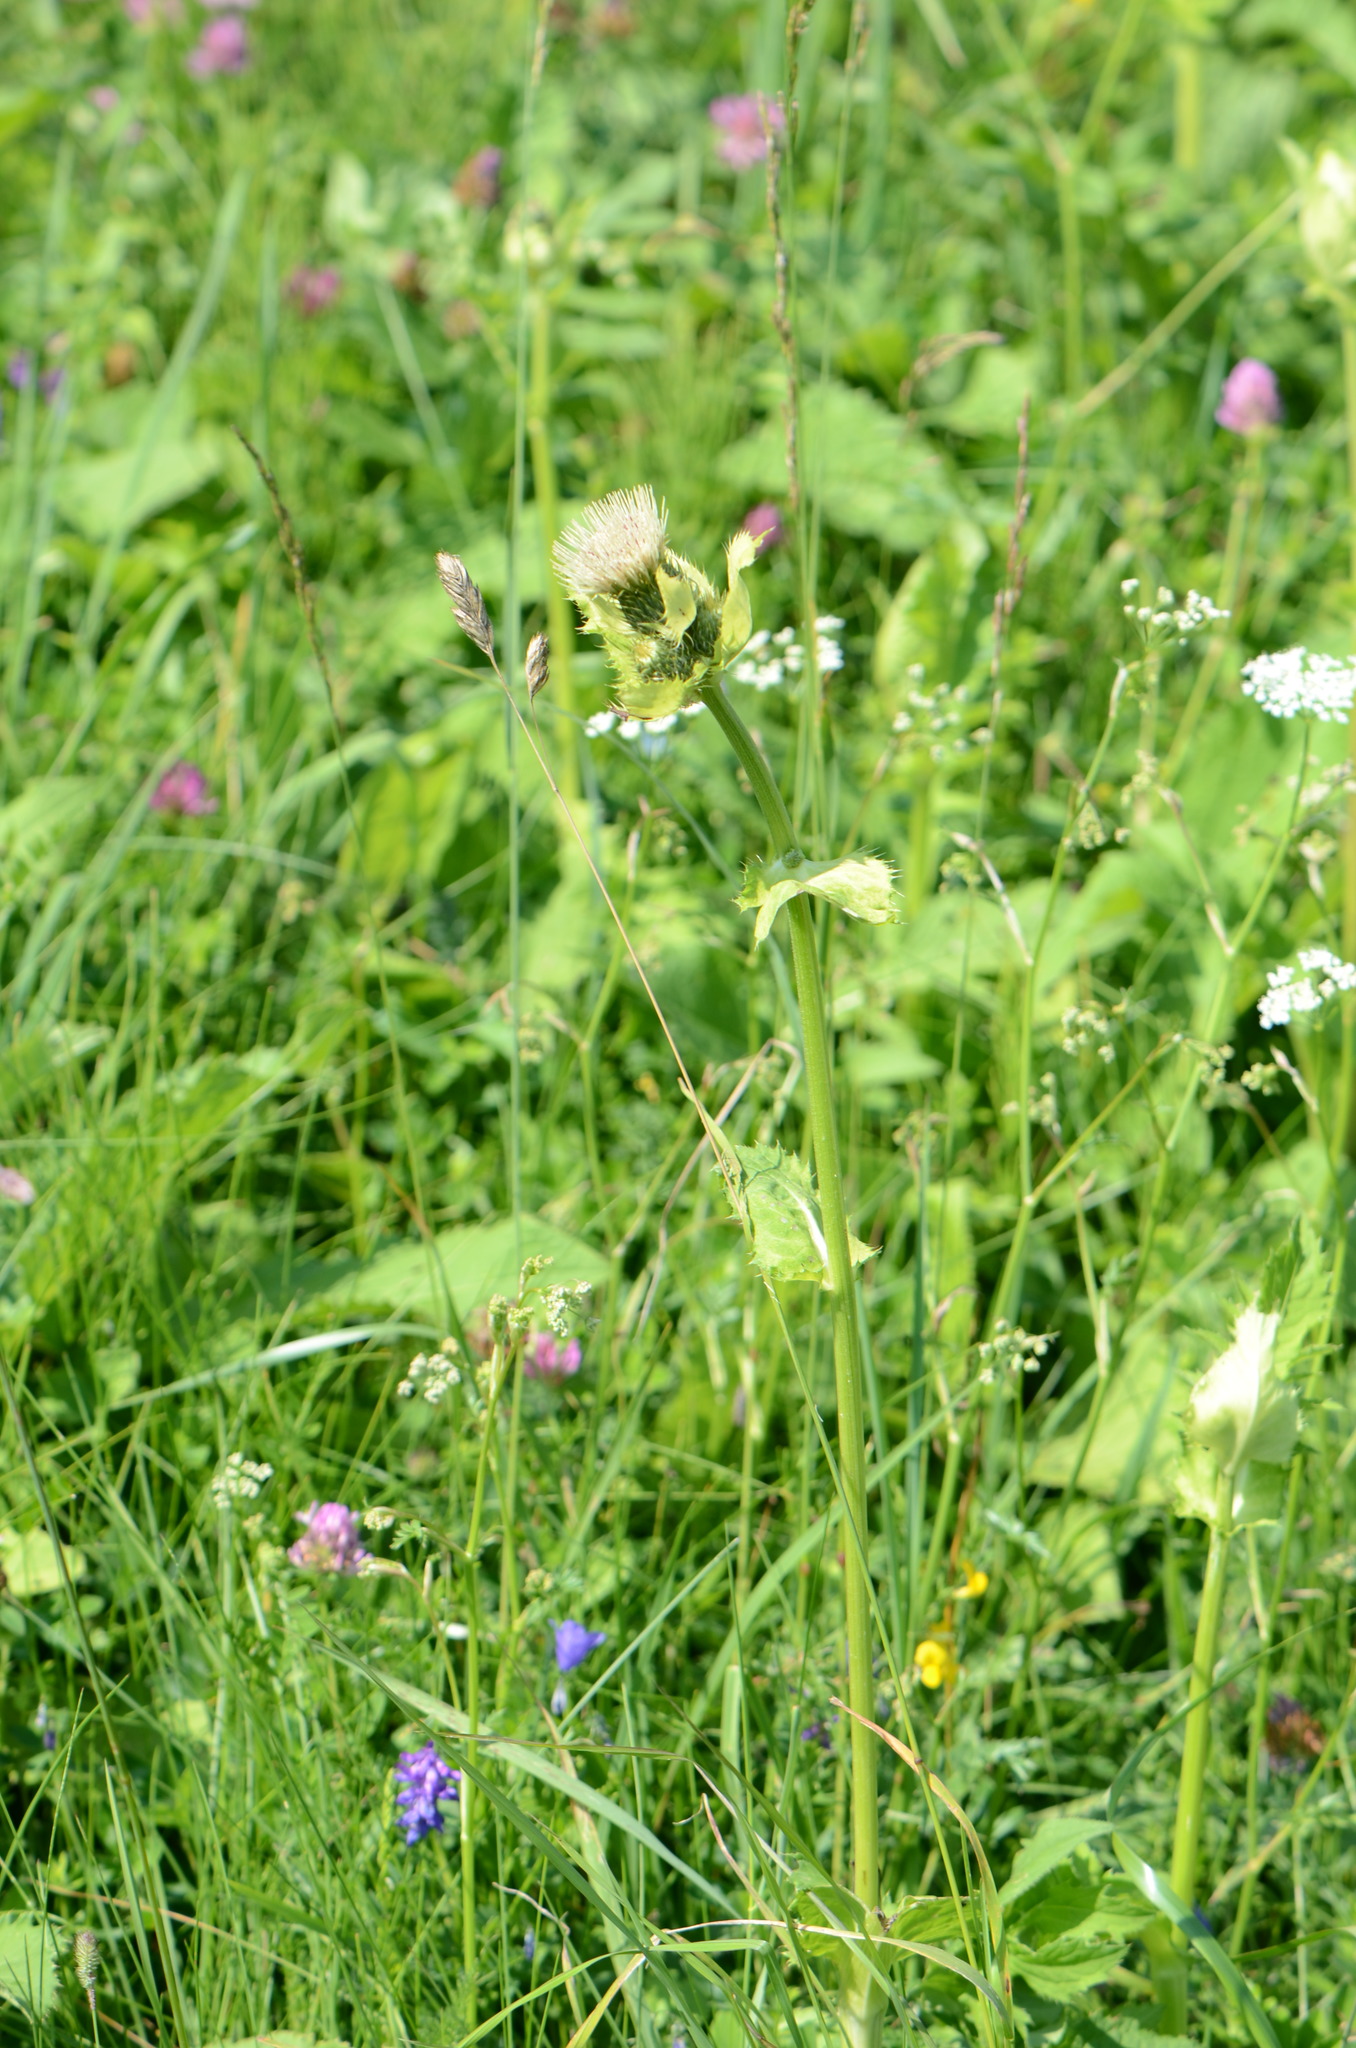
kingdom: Plantae
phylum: Tracheophyta
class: Magnoliopsida
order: Asterales
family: Asteraceae
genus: Cirsium
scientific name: Cirsium oleraceum
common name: Cabbage thistle
